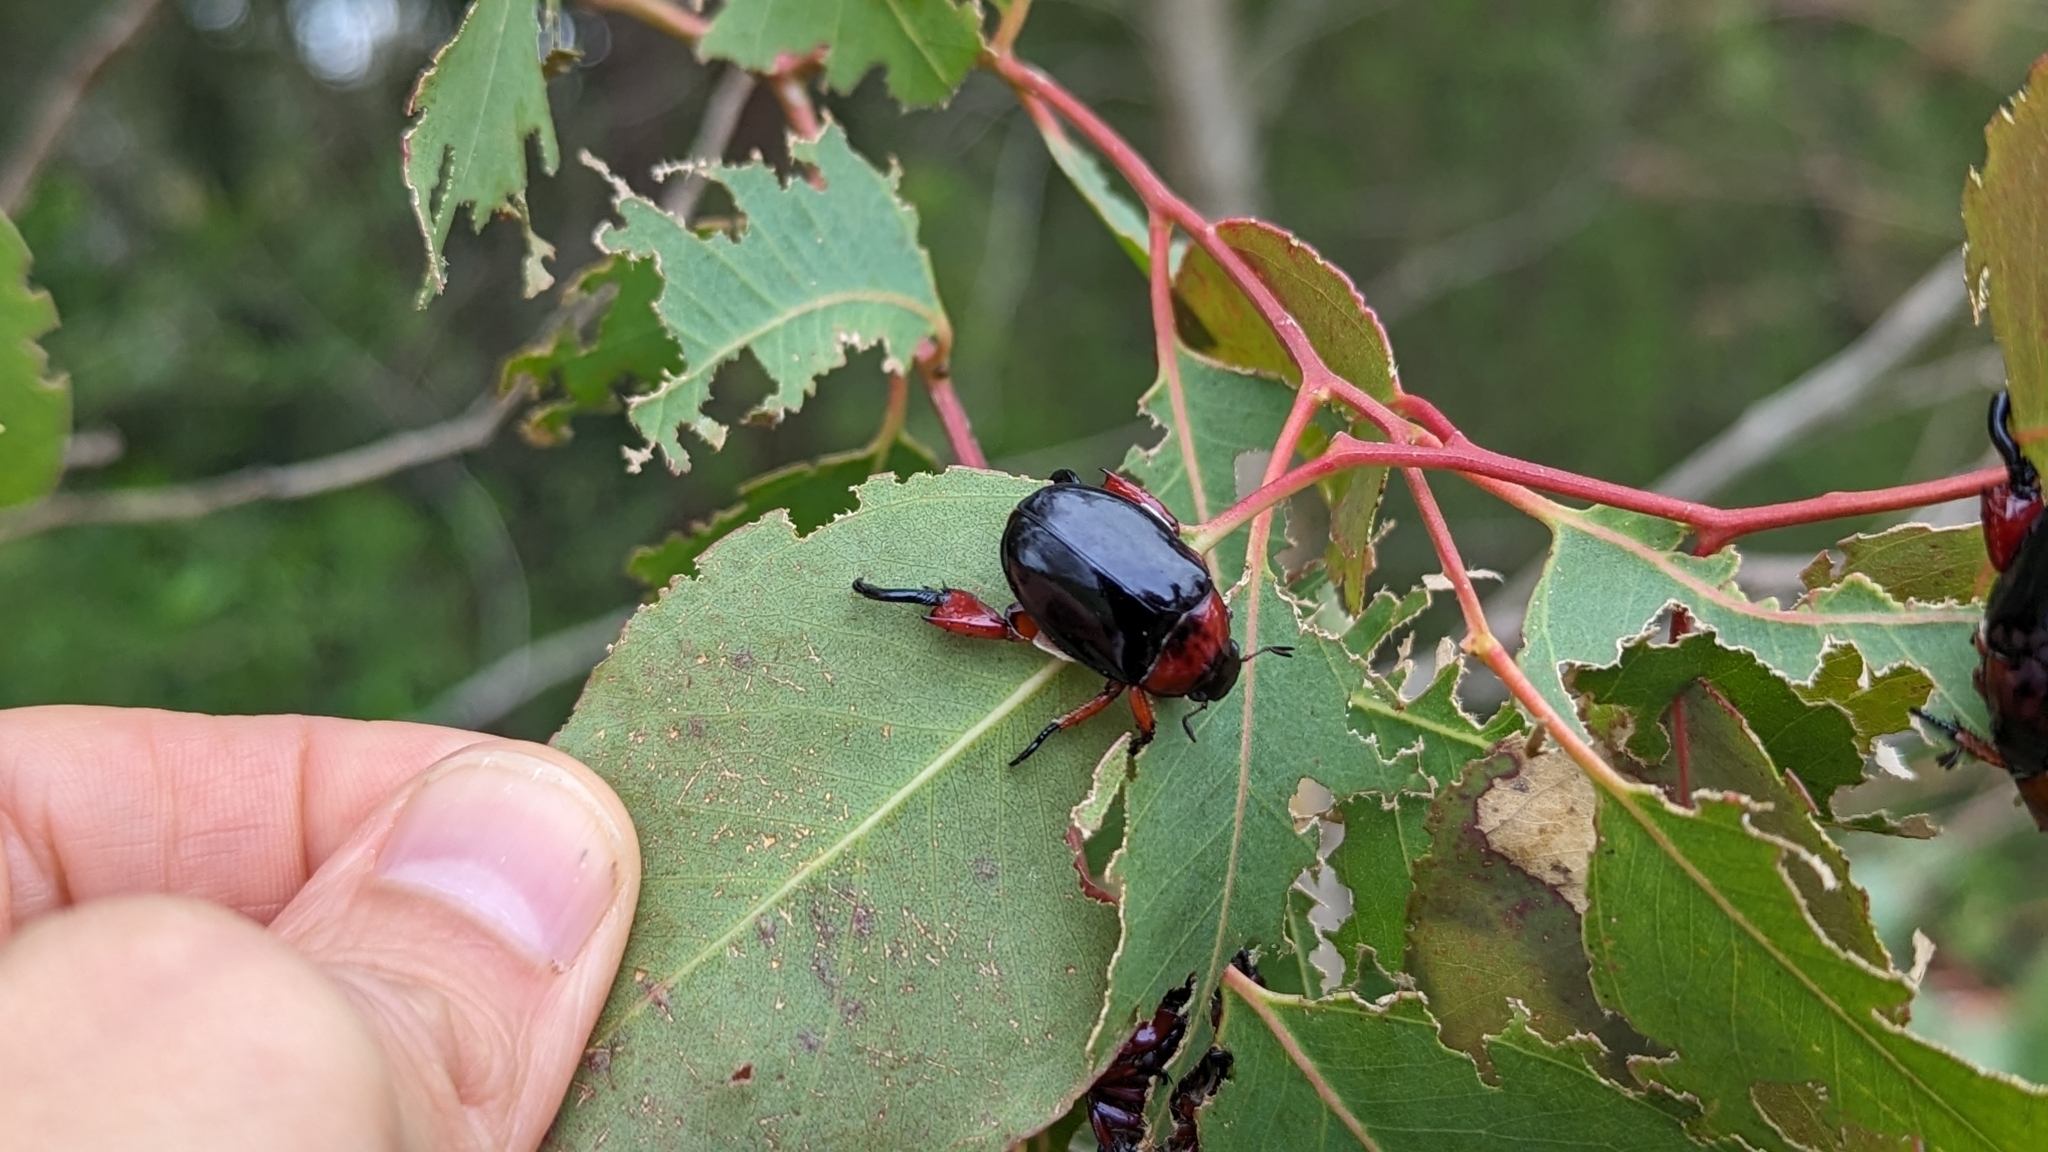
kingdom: Animalia
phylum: Arthropoda
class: Insecta
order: Coleoptera
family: Scarabaeidae
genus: Repsimus
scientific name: Repsimus manicatus
